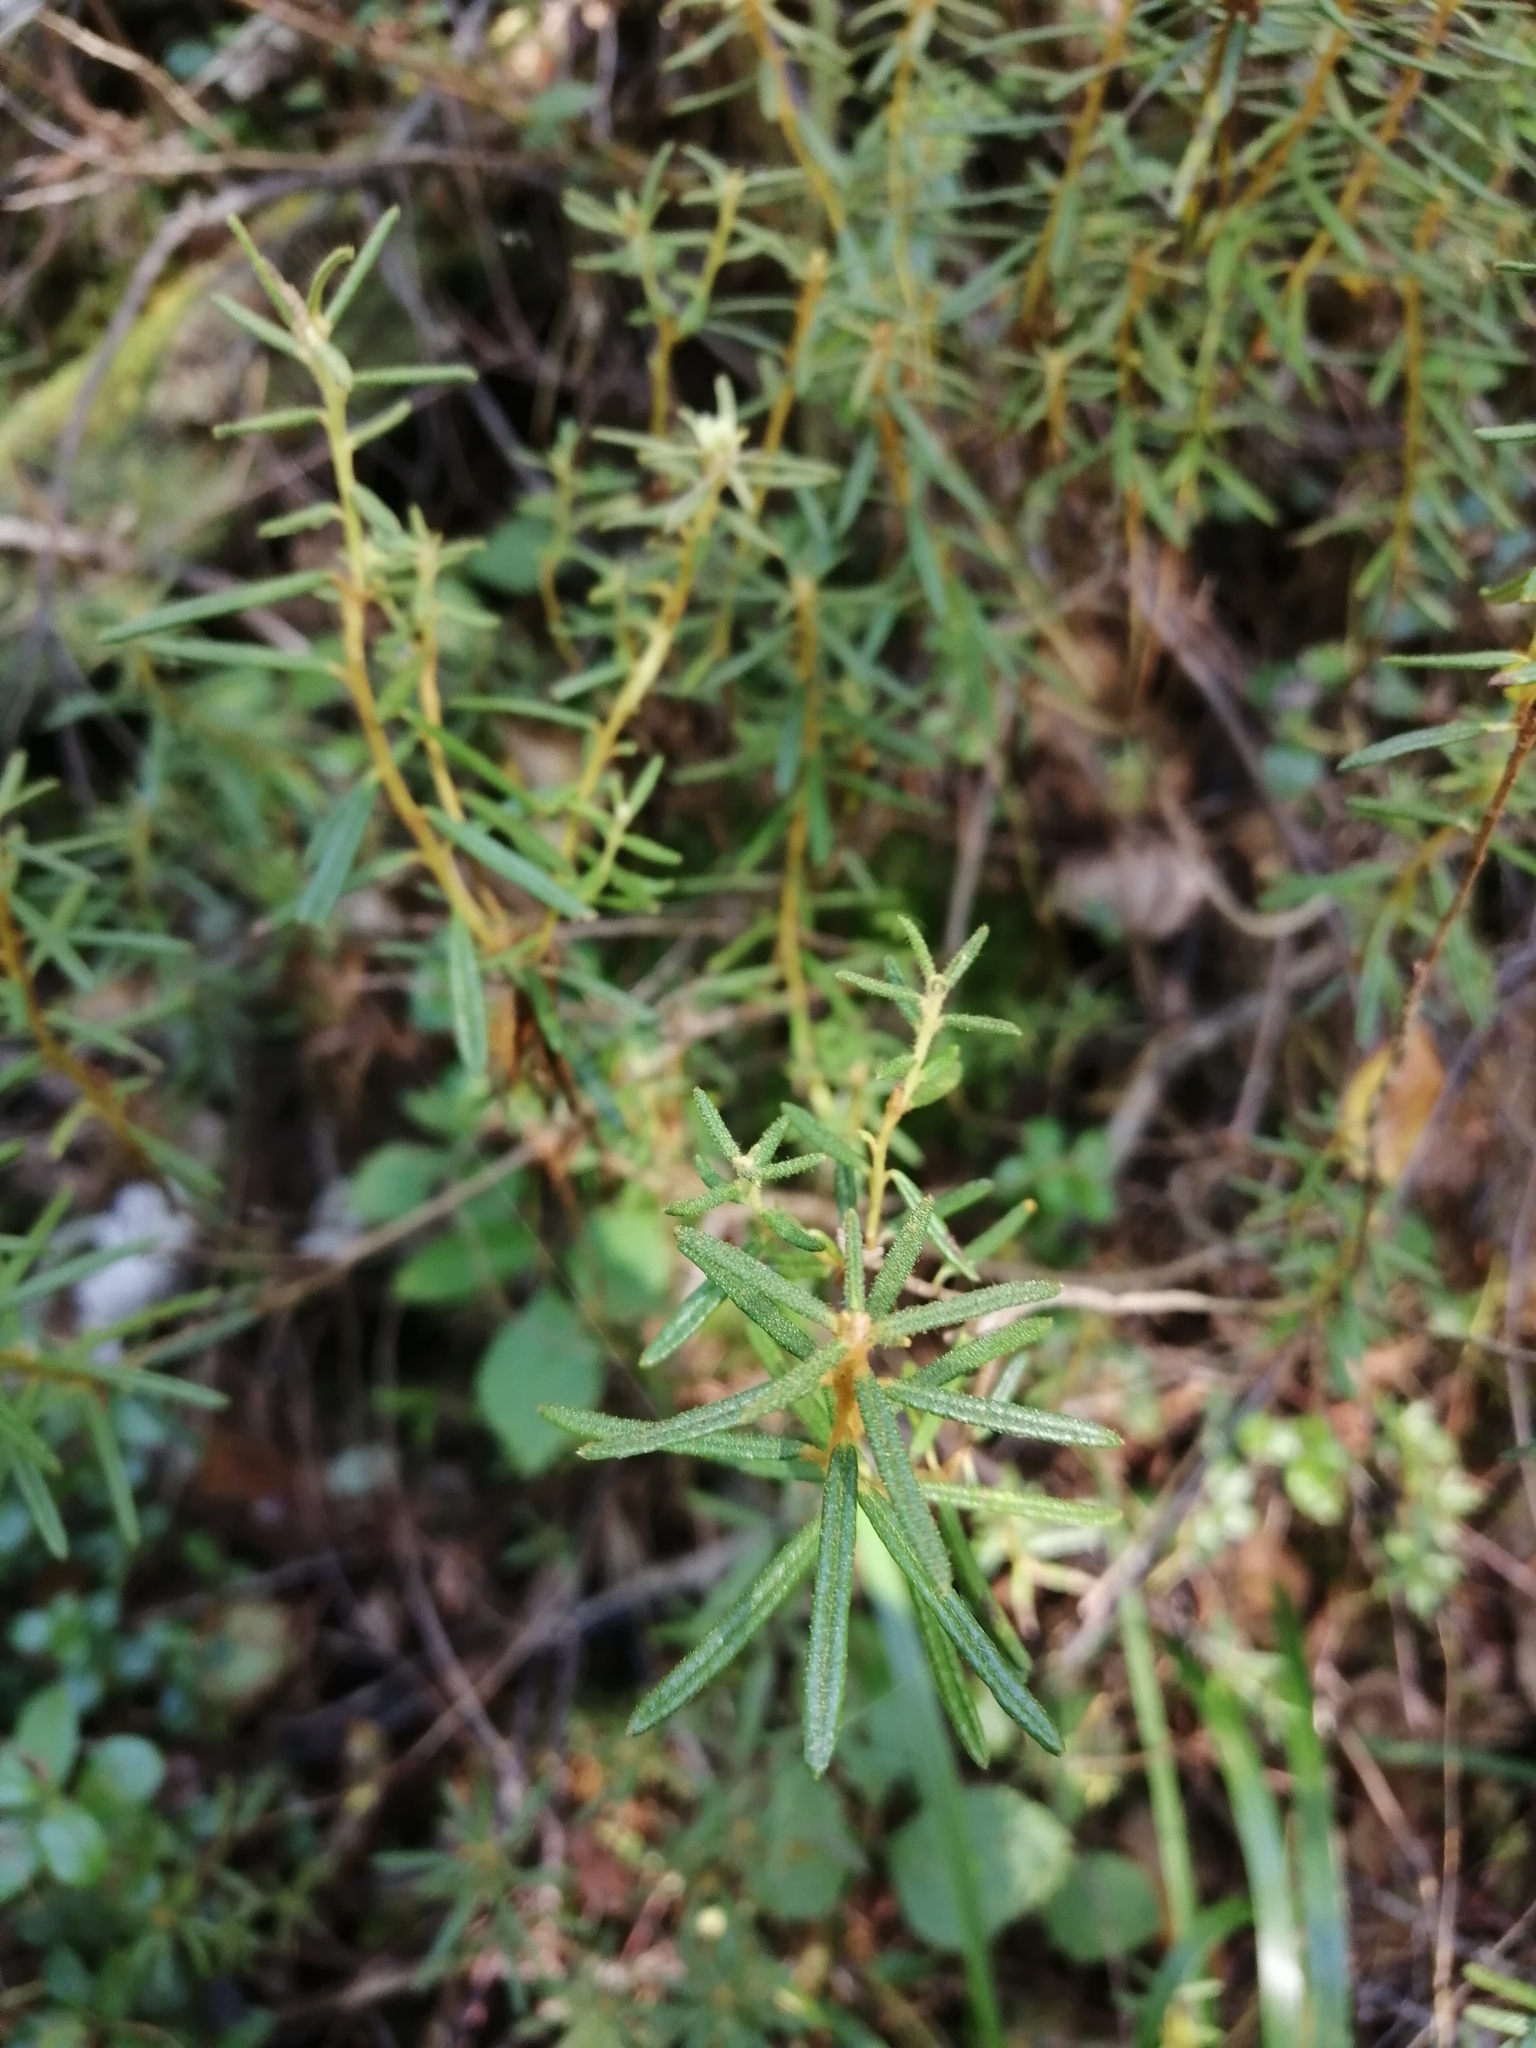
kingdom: Plantae
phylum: Tracheophyta
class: Magnoliopsida
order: Ericales
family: Ericaceae
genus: Rhododendron
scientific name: Rhododendron tomentosum
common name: Marsh labrador tea
